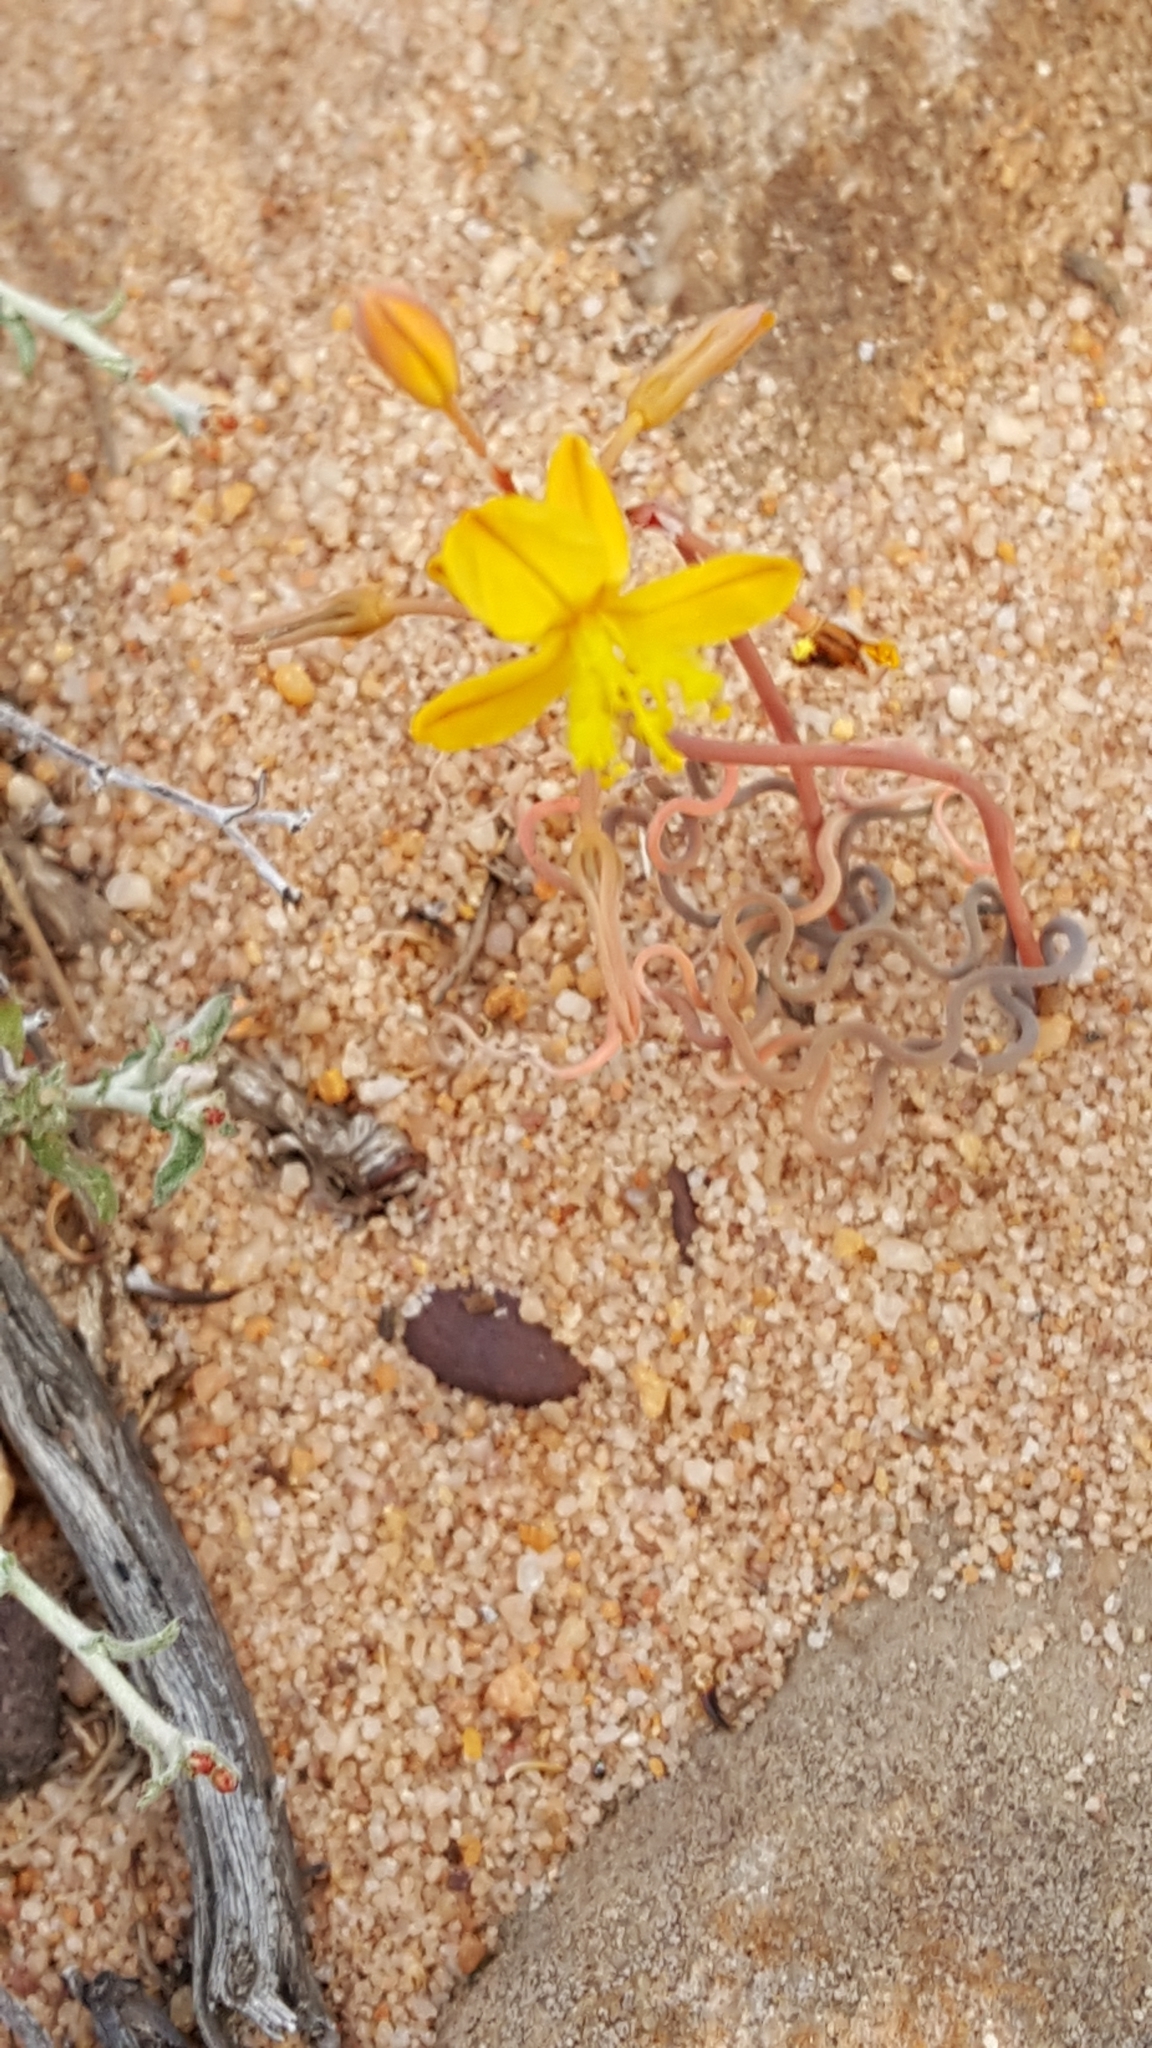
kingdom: Plantae
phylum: Tracheophyta
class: Liliopsida
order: Asparagales
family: Asphodelaceae
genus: Bulbine
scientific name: Bulbine torta
